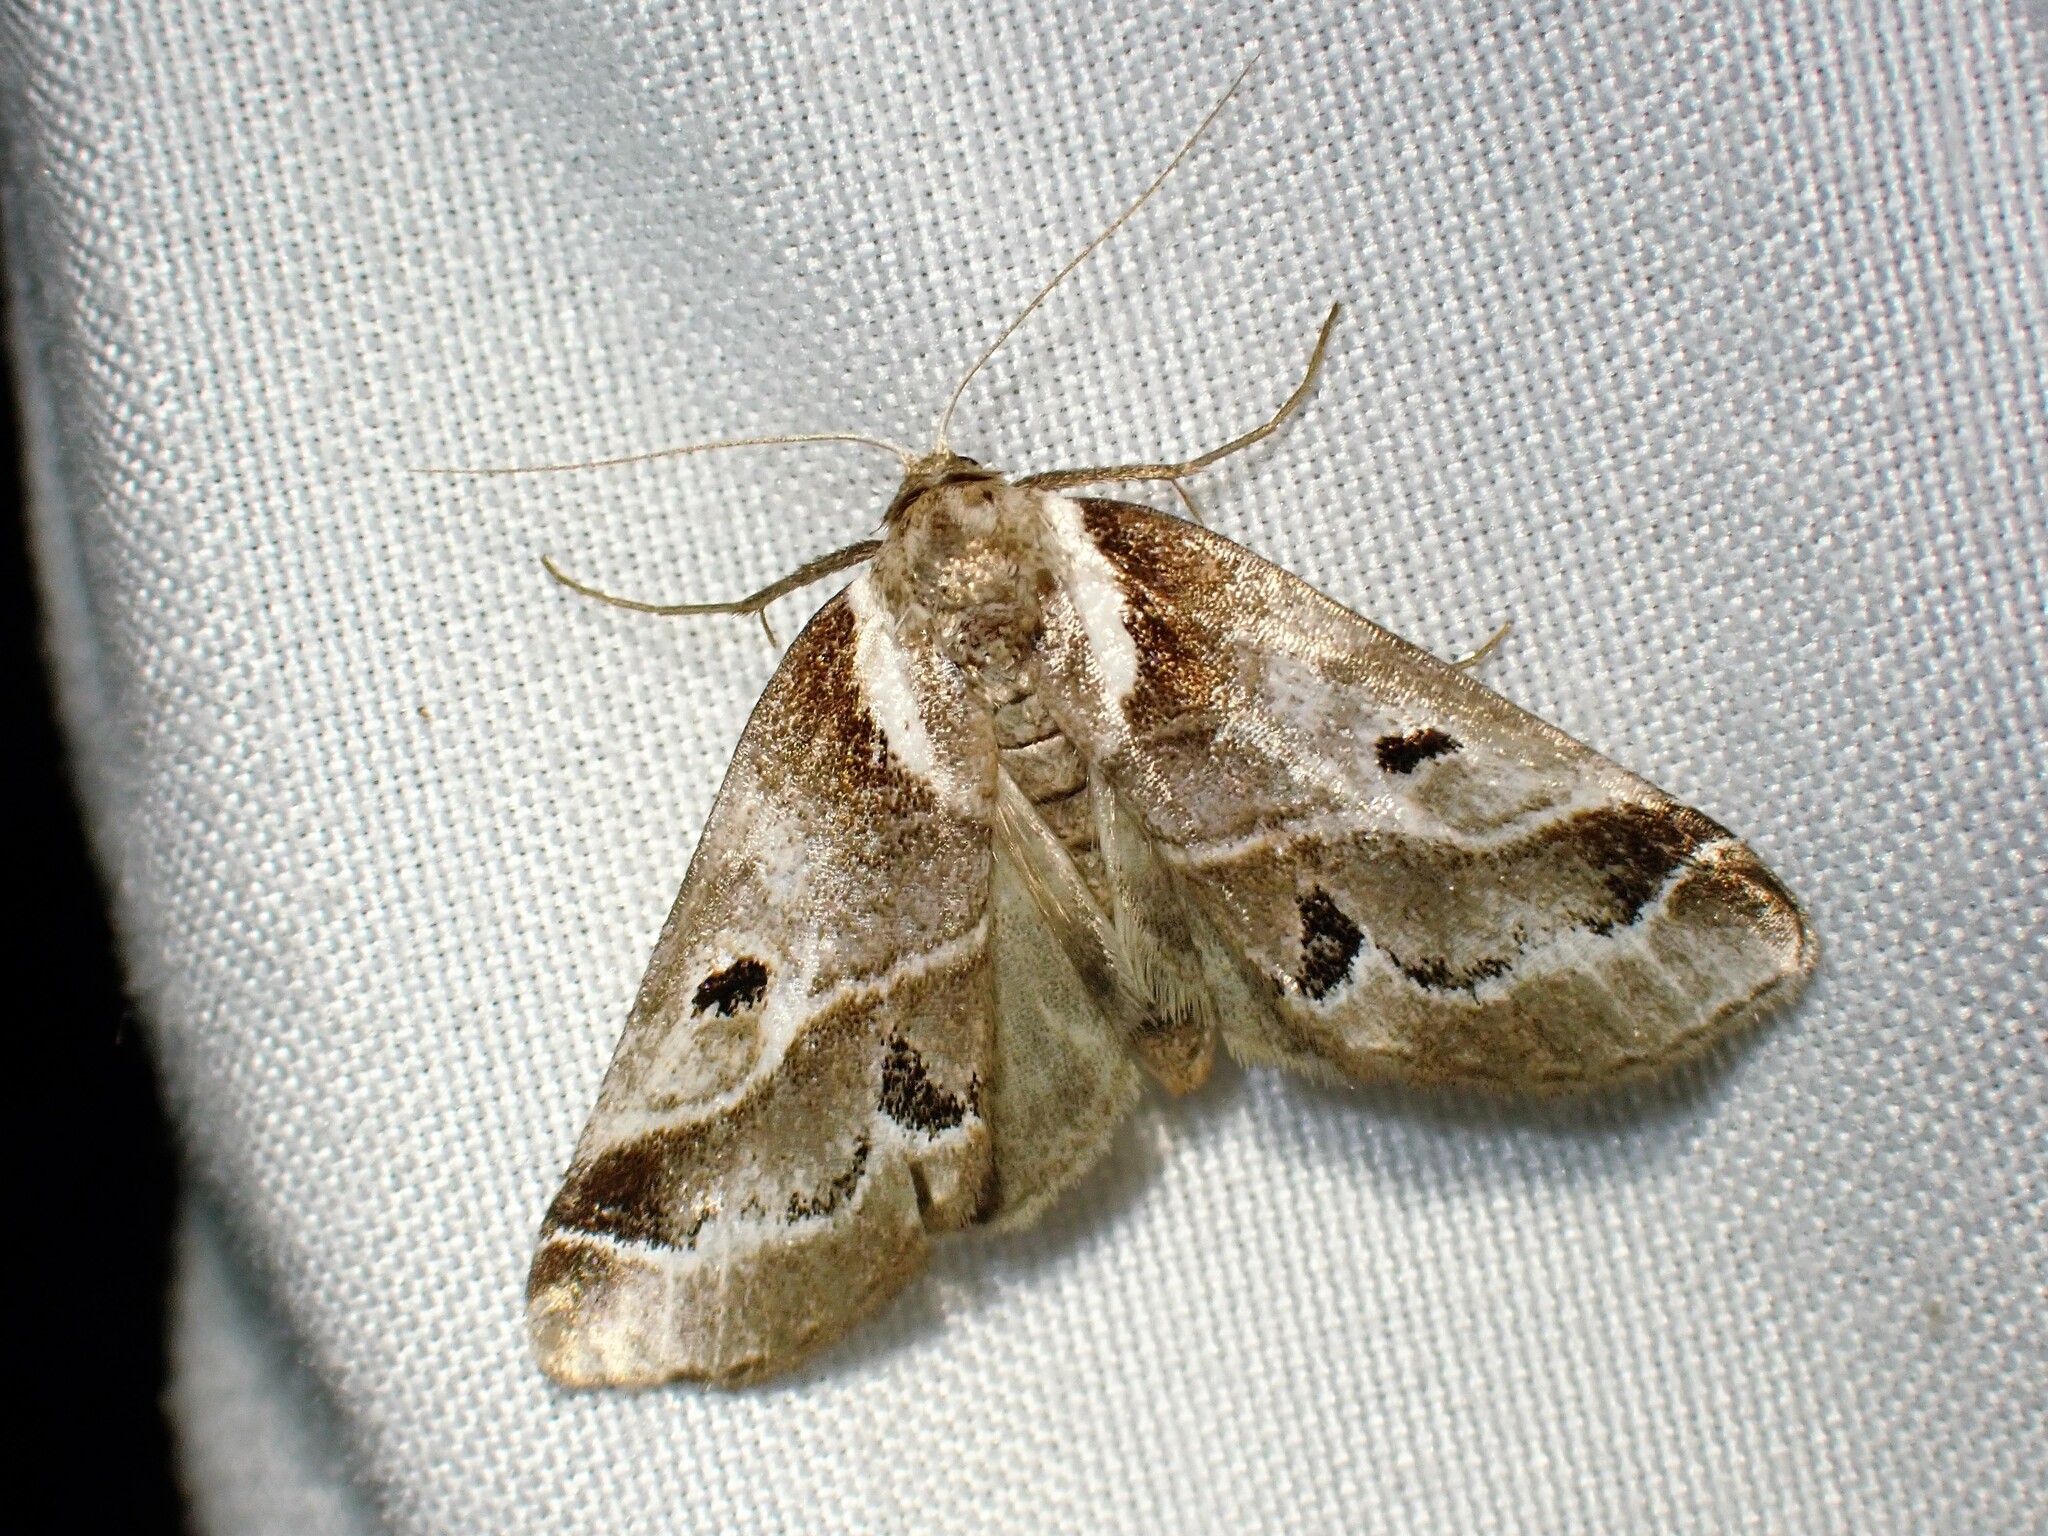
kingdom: Animalia
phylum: Arthropoda
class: Insecta
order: Lepidoptera
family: Nolidae
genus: Baileya
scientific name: Baileya doubledayi
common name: Doubleday's baileya moth
